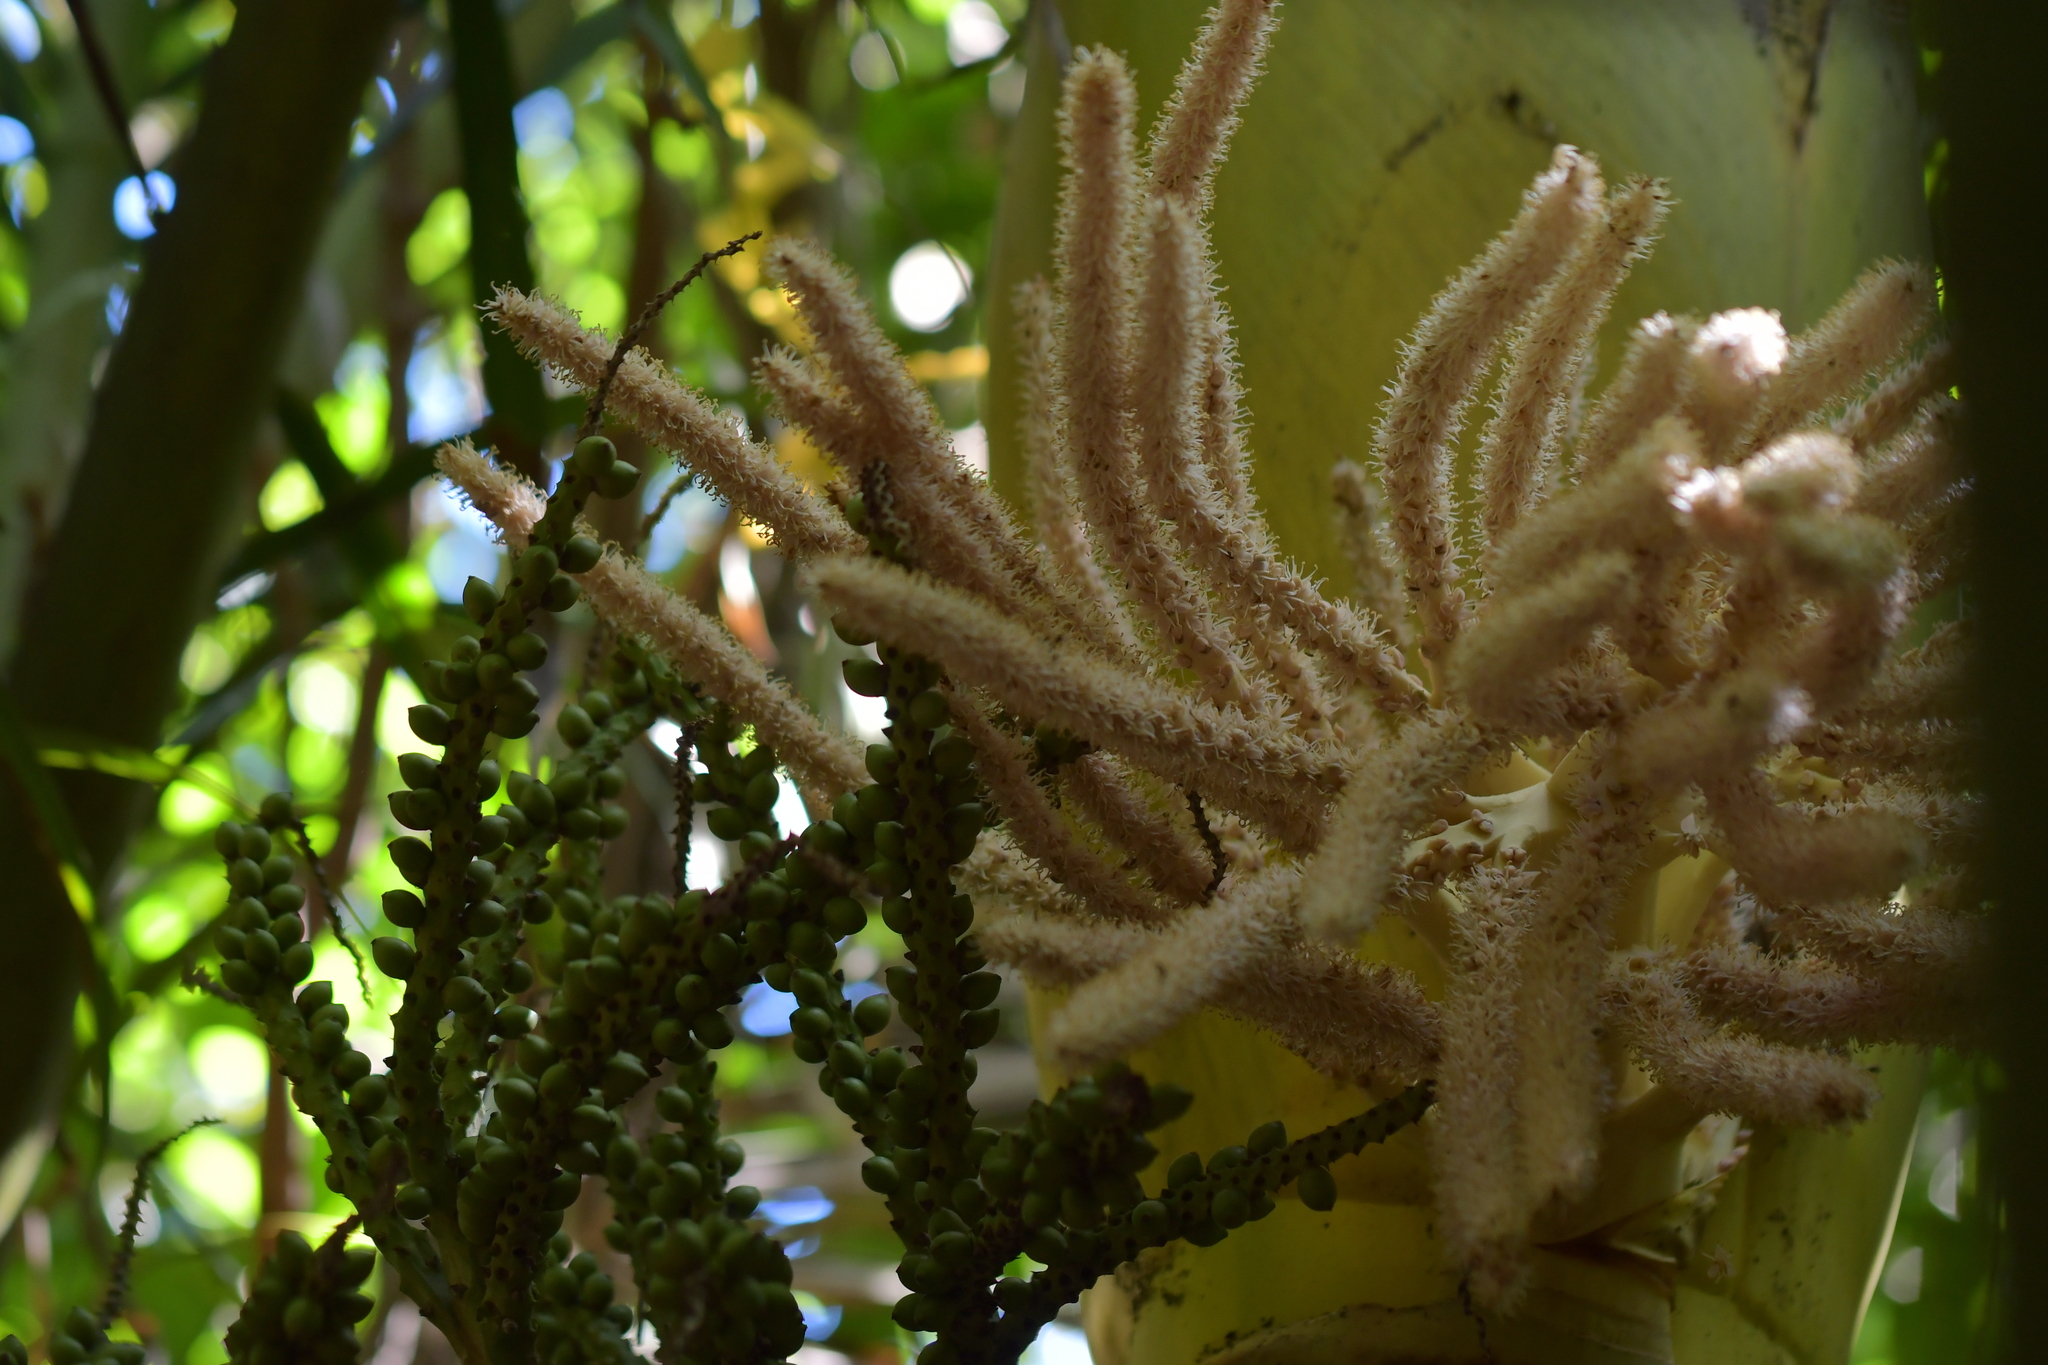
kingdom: Plantae
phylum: Tracheophyta
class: Liliopsida
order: Arecales
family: Arecaceae
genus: Rhopalostylis
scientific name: Rhopalostylis sapida
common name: Feather-duster palm
